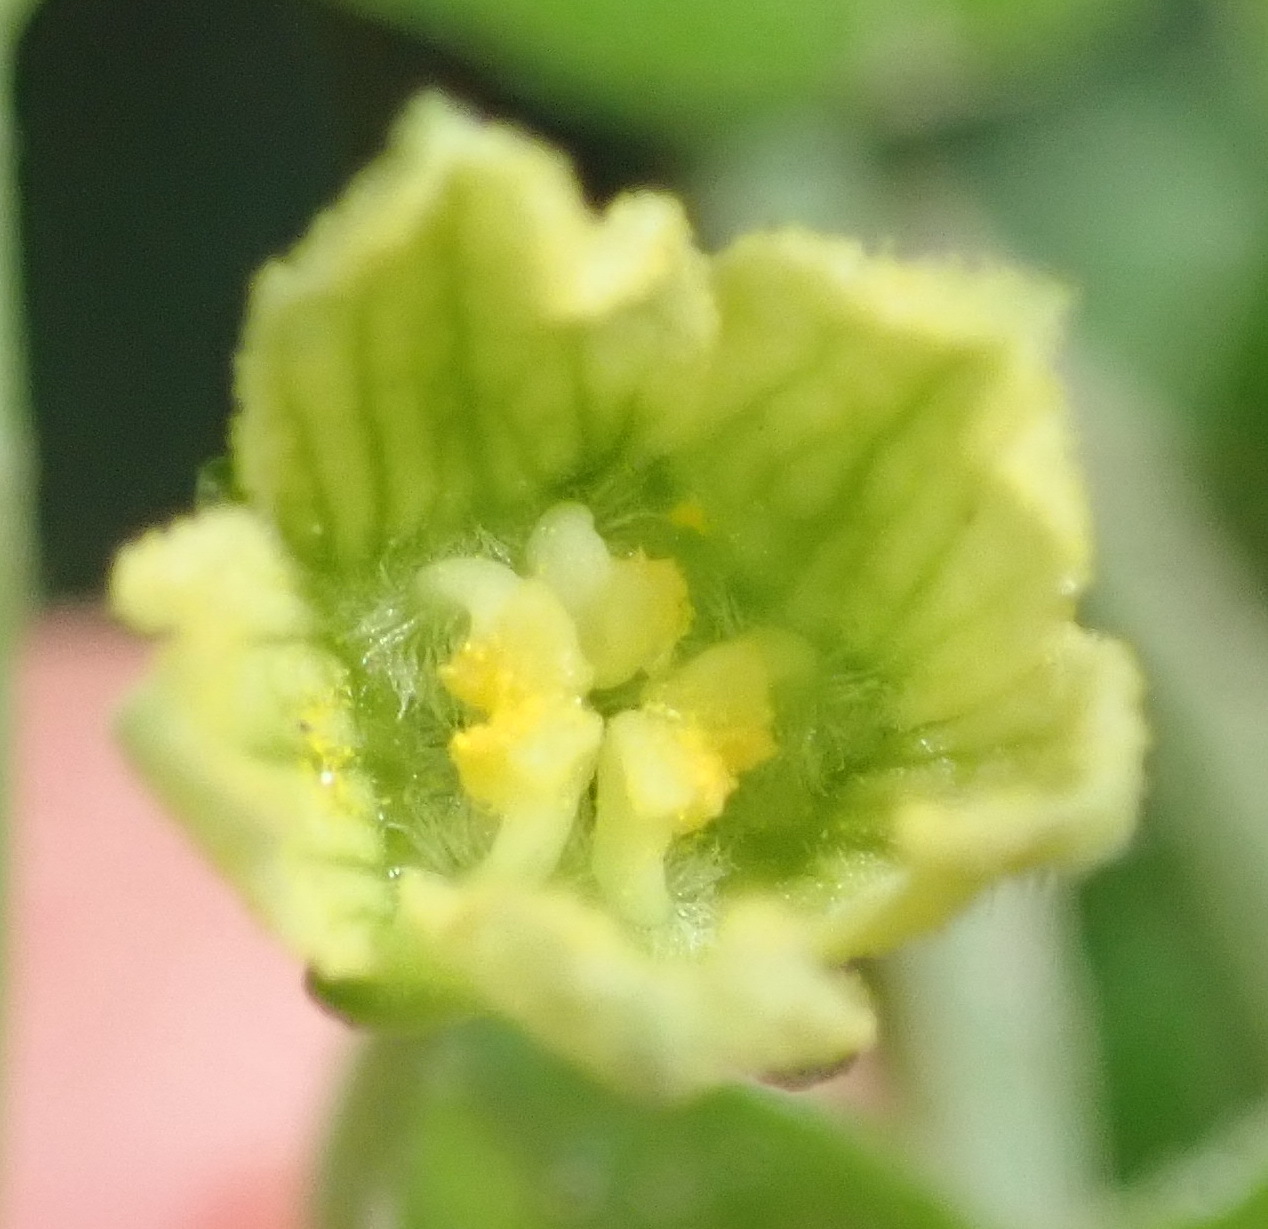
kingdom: Plantae
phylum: Tracheophyta
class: Magnoliopsida
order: Cucurbitales
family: Cucurbitaceae
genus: Kedrostis
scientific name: Kedrostis nana
